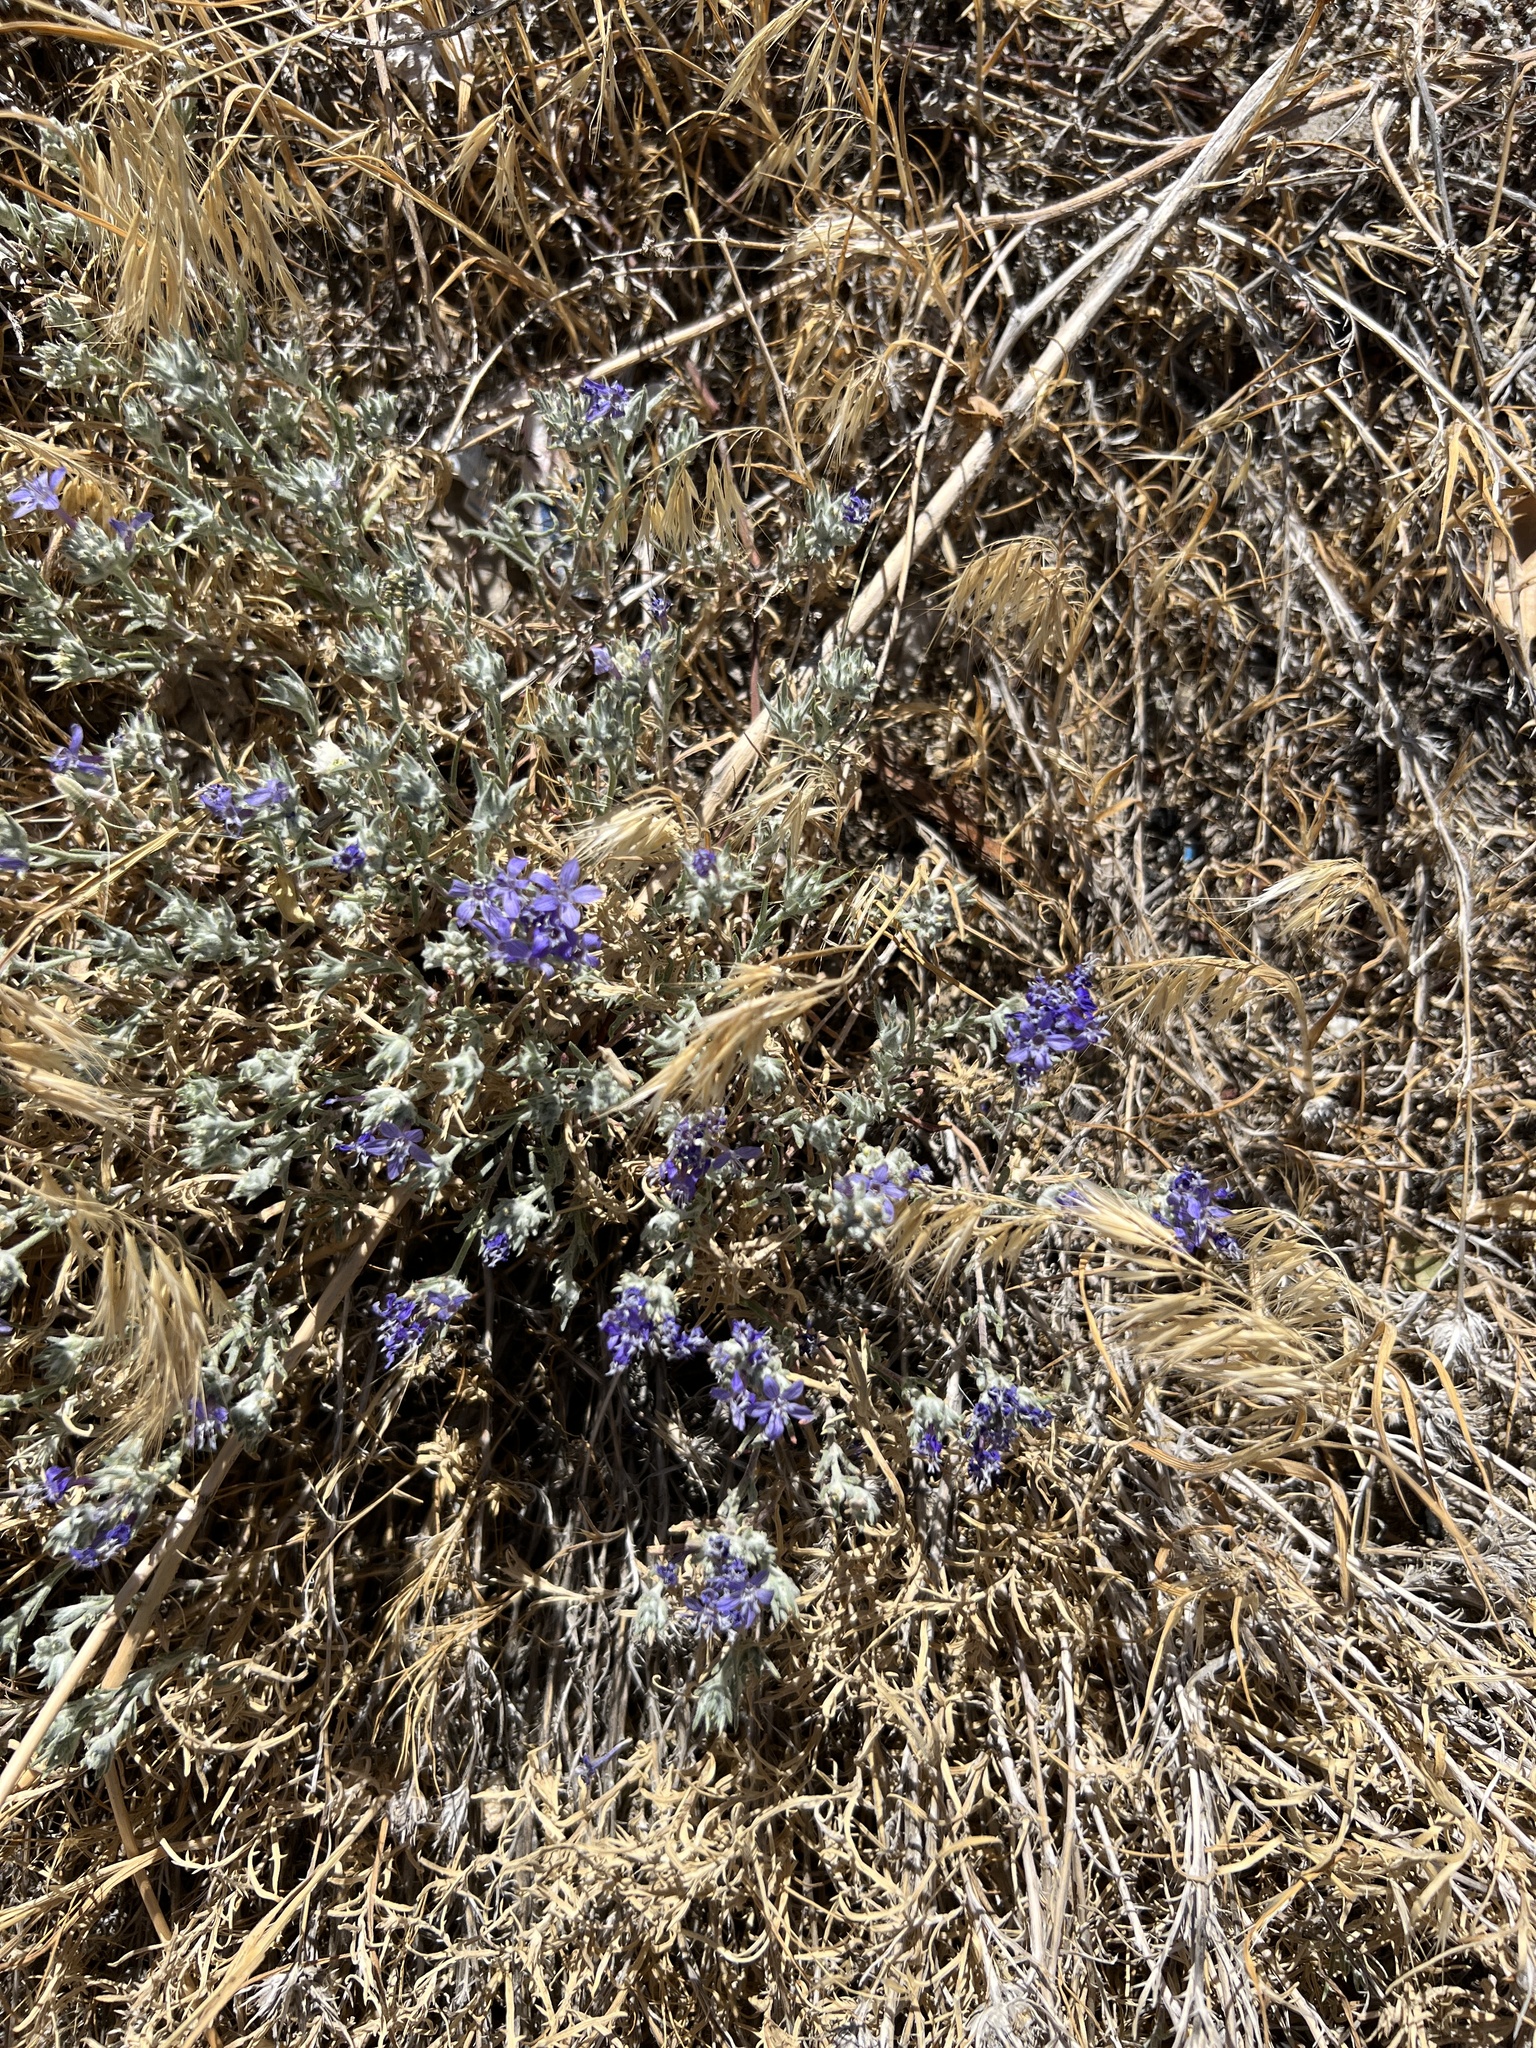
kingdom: Plantae
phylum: Tracheophyta
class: Magnoliopsida
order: Ericales
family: Polemoniaceae
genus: Eriastrum
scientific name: Eriastrum densifolium
